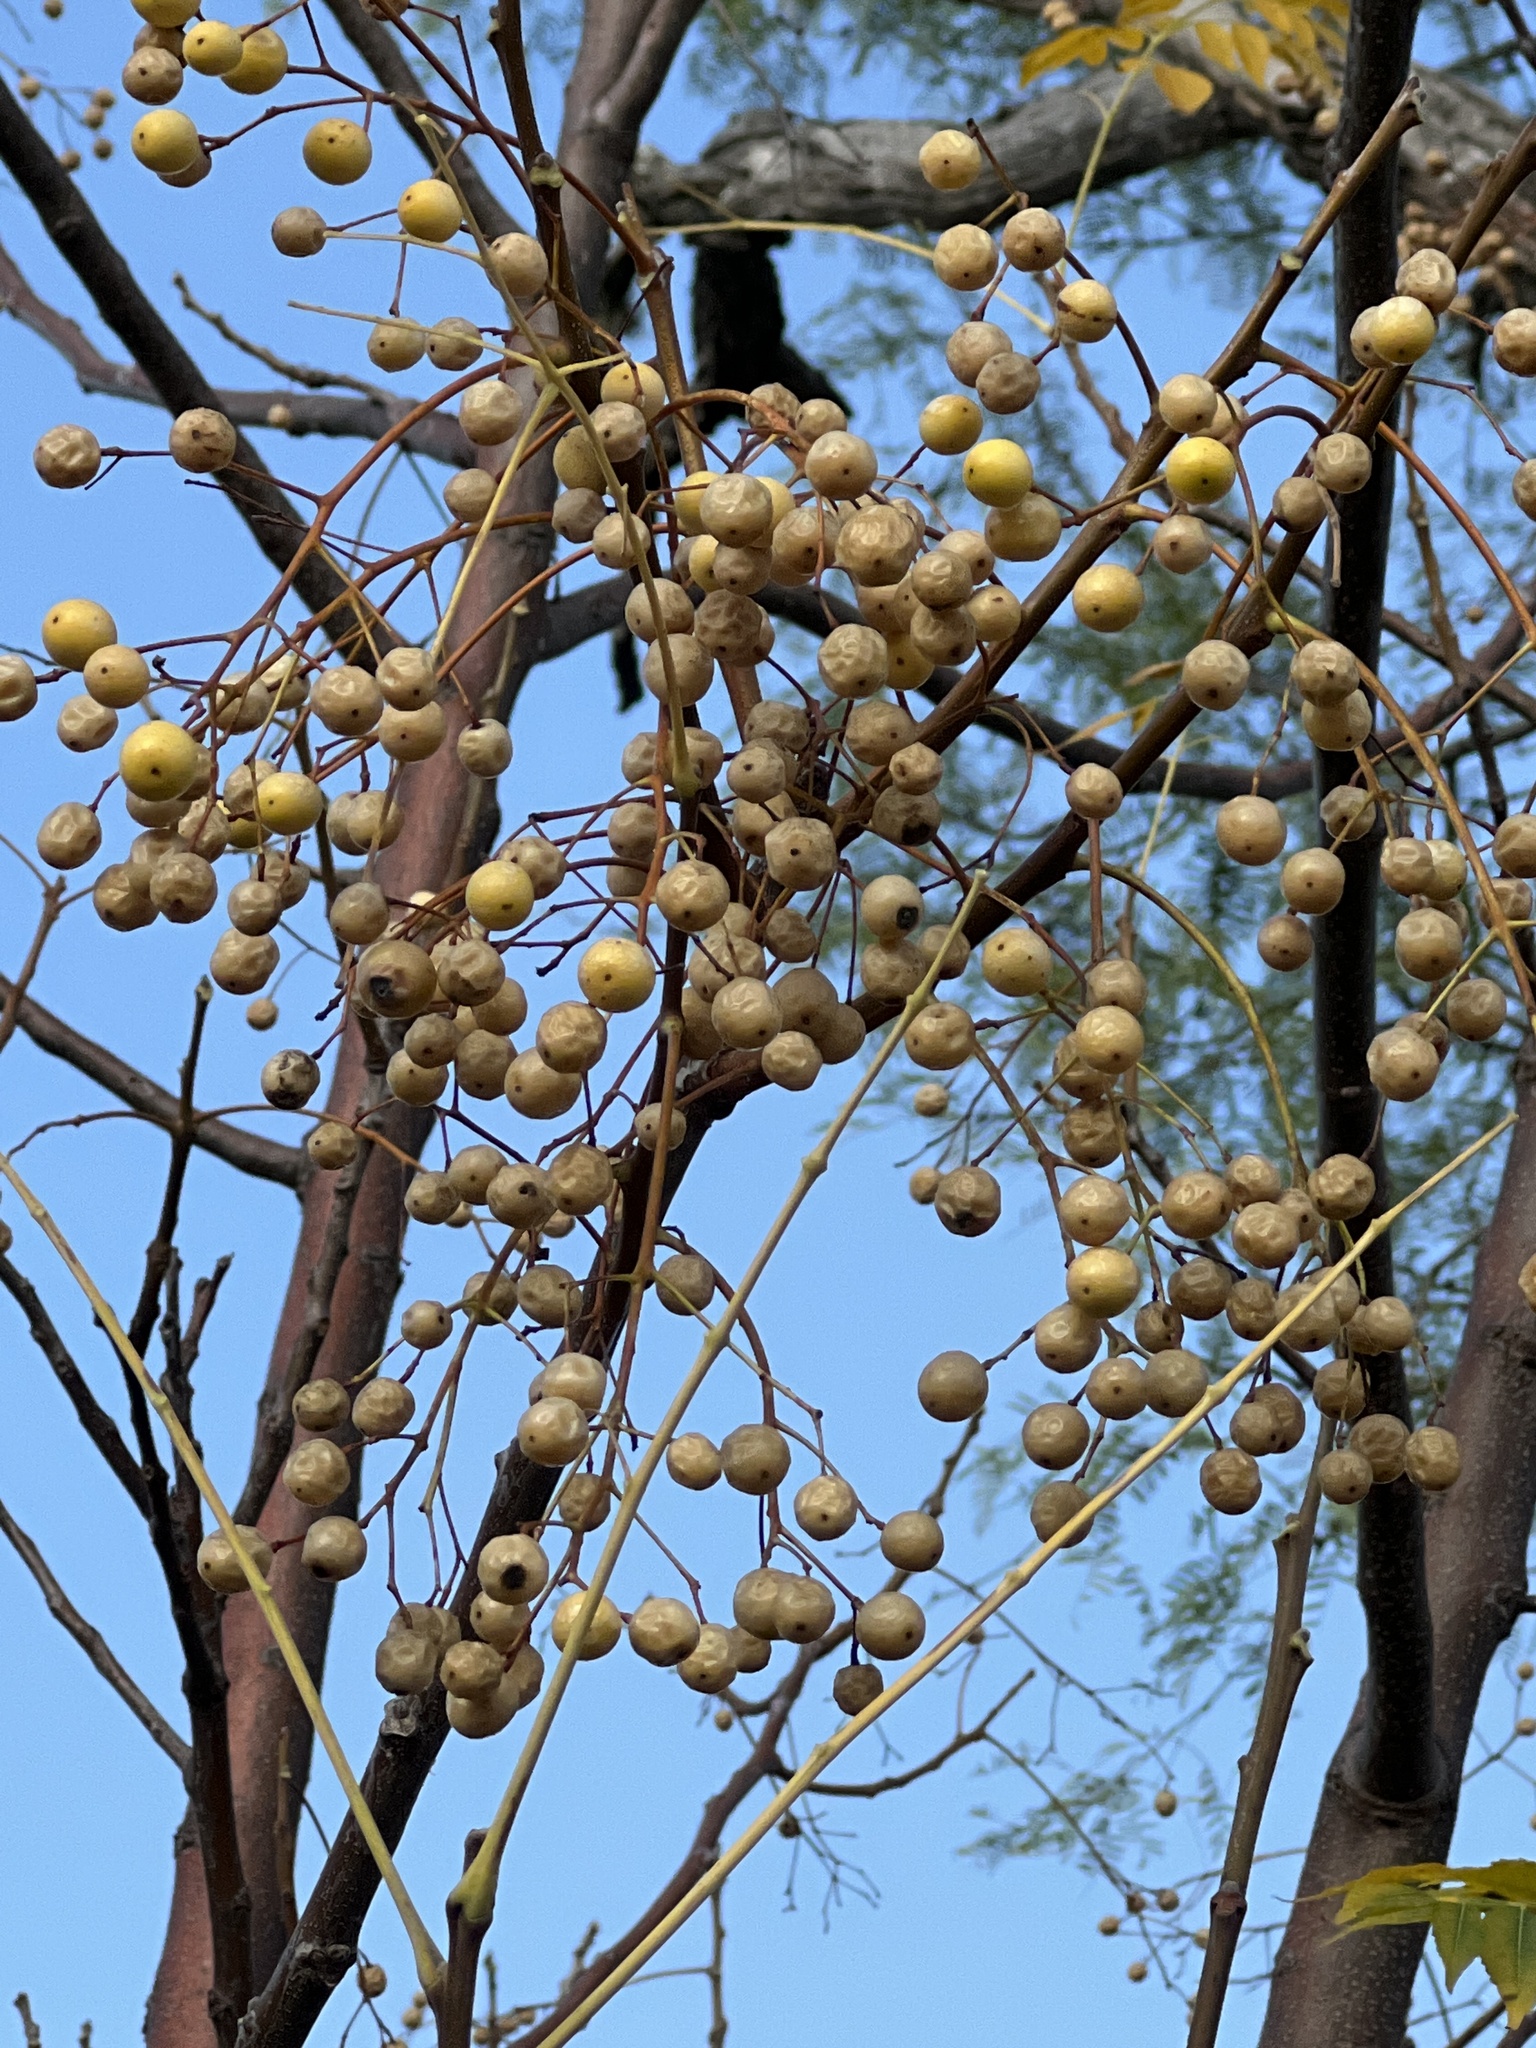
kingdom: Plantae
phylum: Tracheophyta
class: Magnoliopsida
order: Sapindales
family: Meliaceae
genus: Melia
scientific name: Melia azedarach
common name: Chinaberrytree
